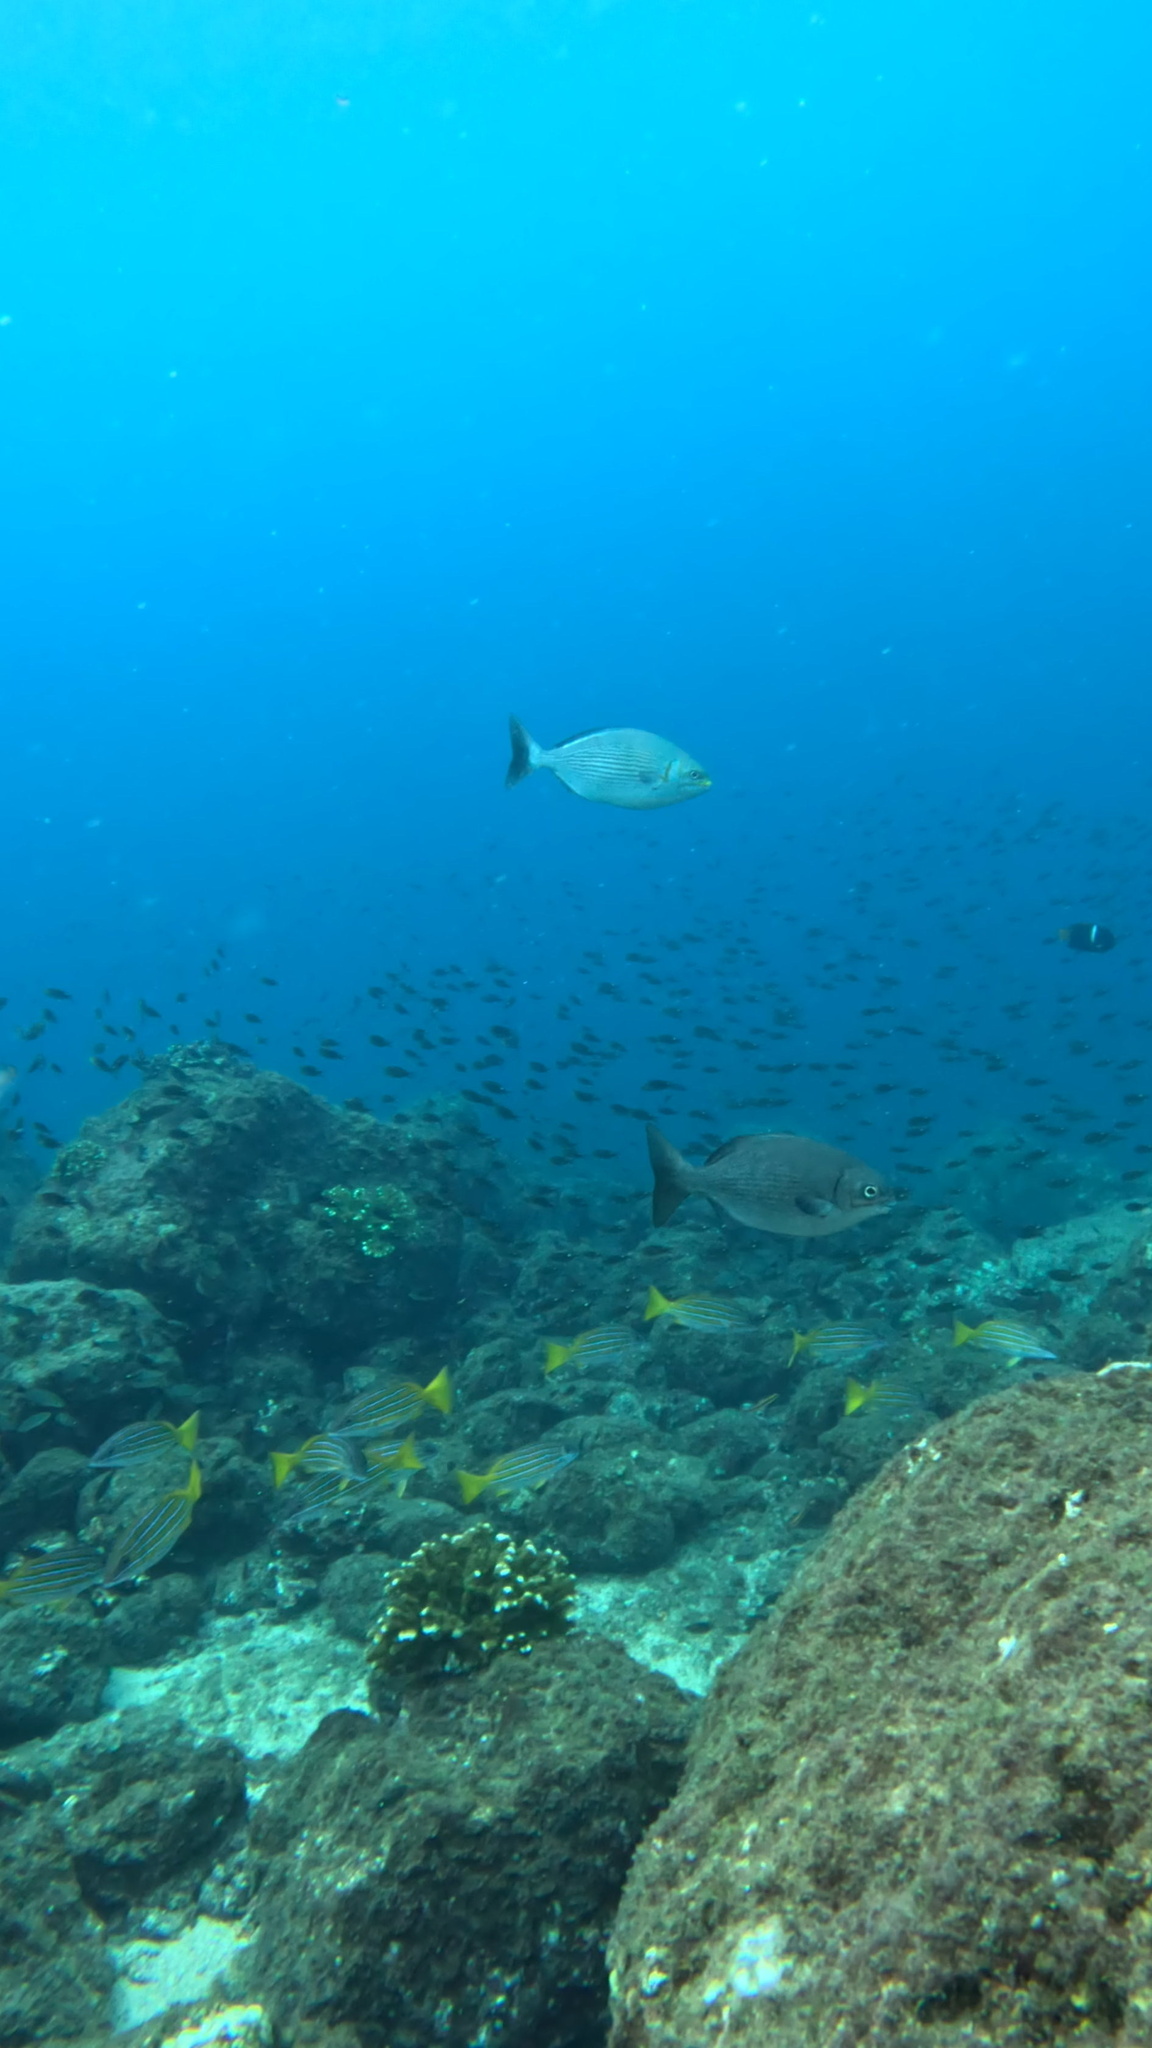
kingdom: Animalia
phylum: Chordata
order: Perciformes
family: Kyphosidae
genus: Kyphosus
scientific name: Kyphosus elegans
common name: Cortez chub
